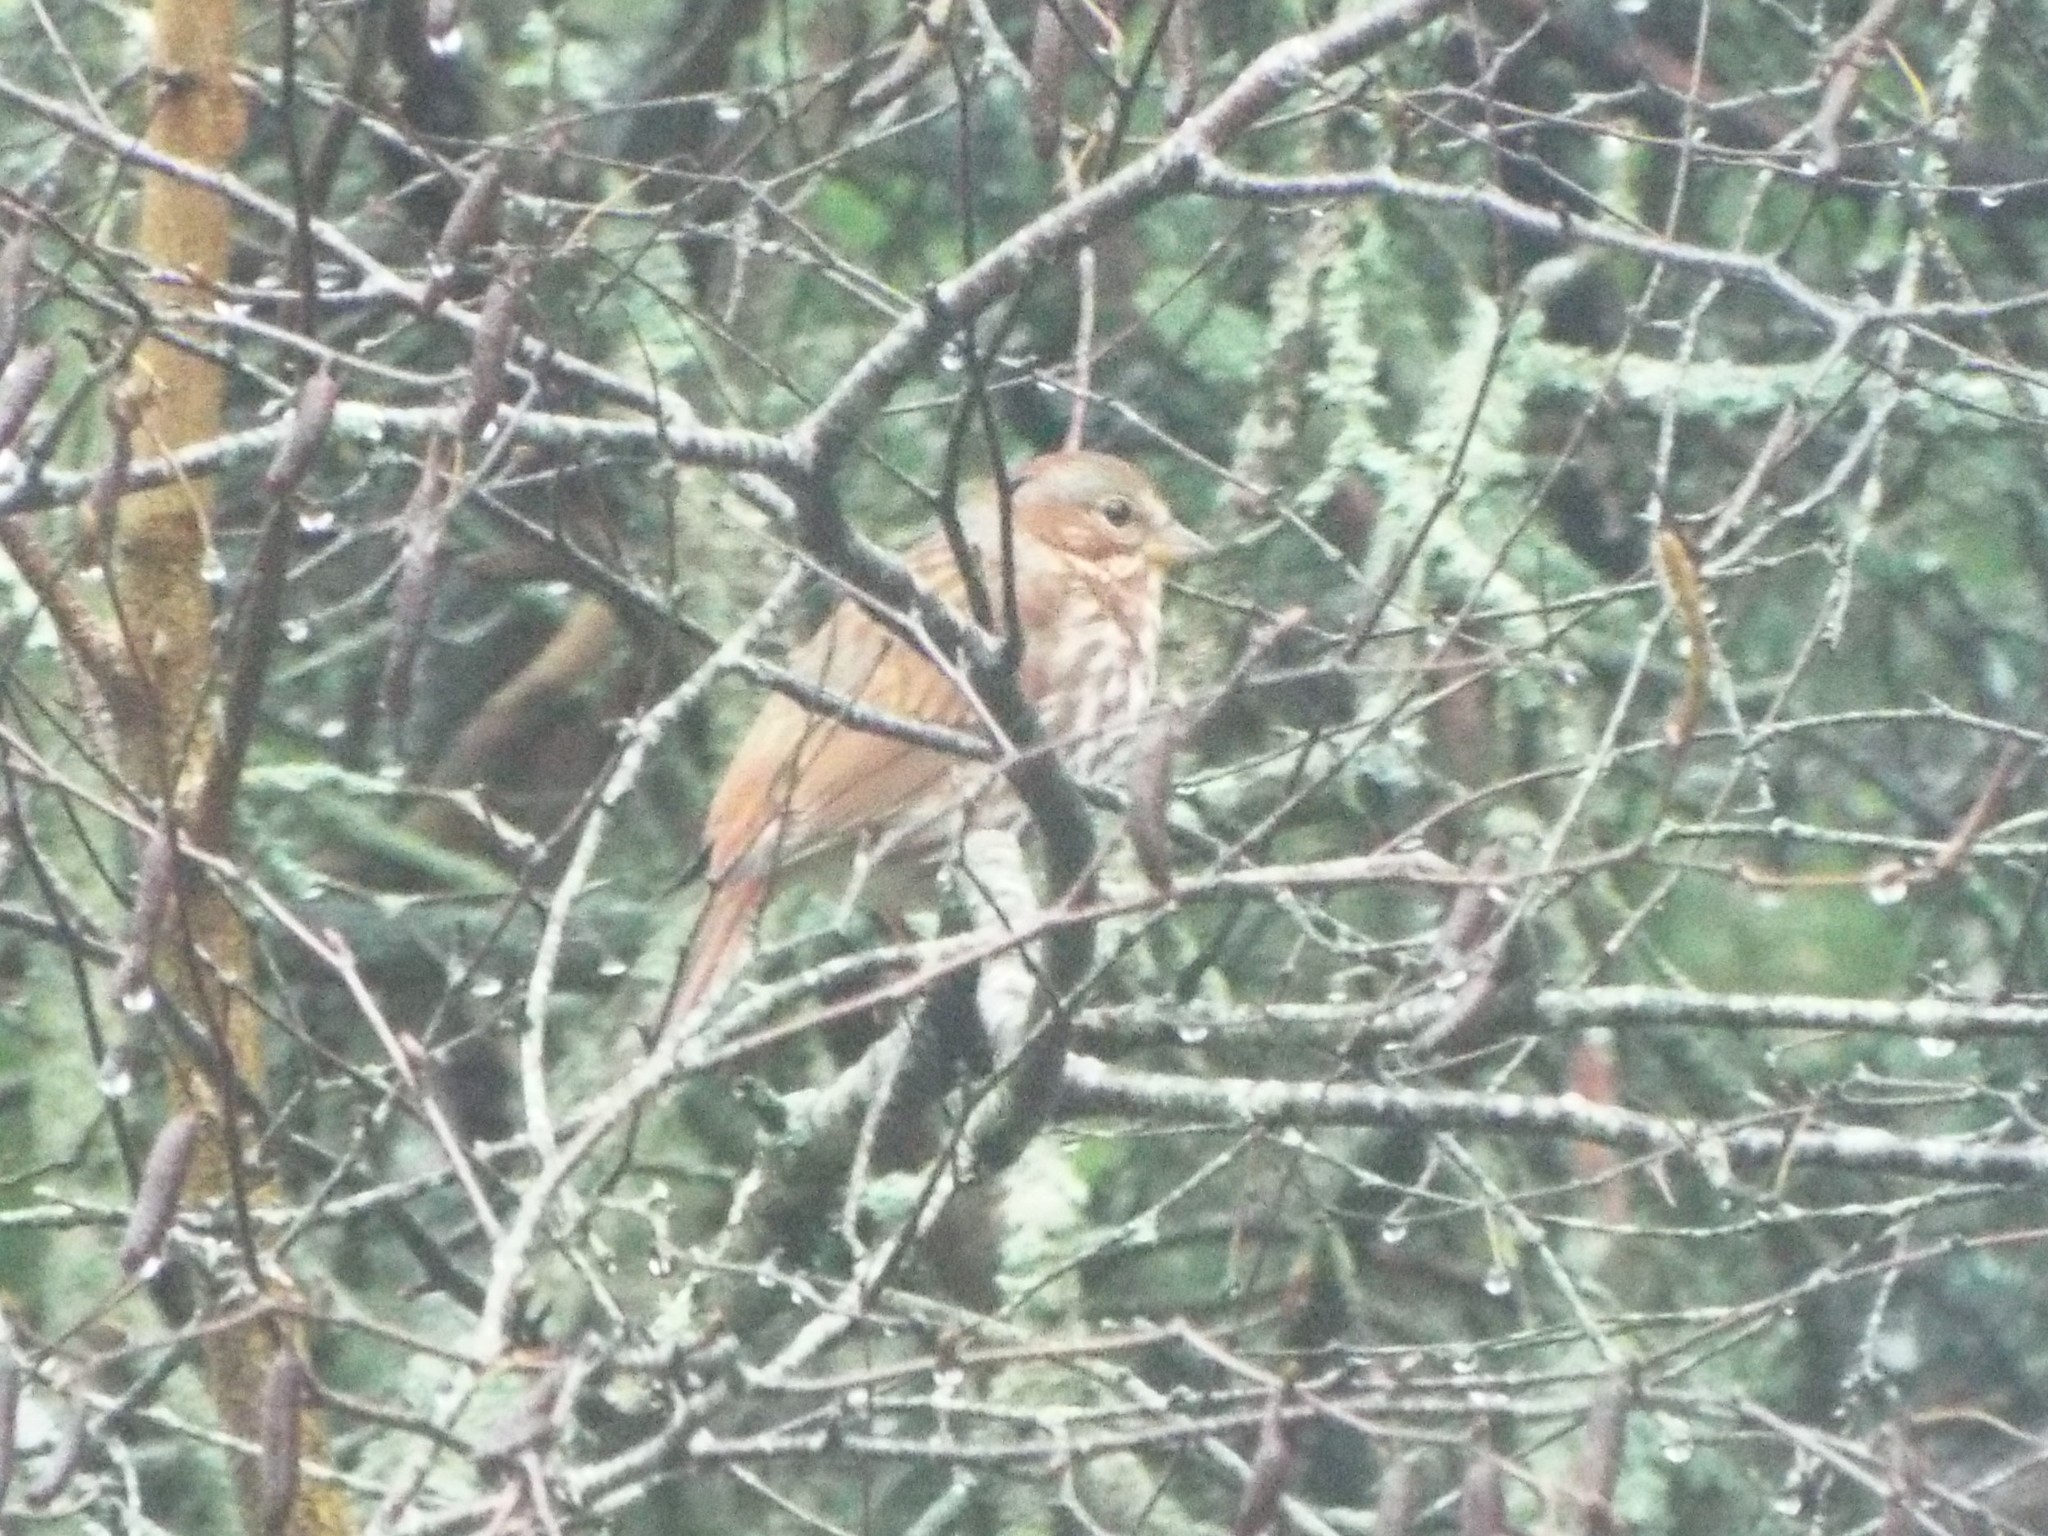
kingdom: Animalia
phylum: Chordata
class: Aves
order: Passeriformes
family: Passerellidae
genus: Passerella
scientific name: Passerella iliaca
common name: Fox sparrow
